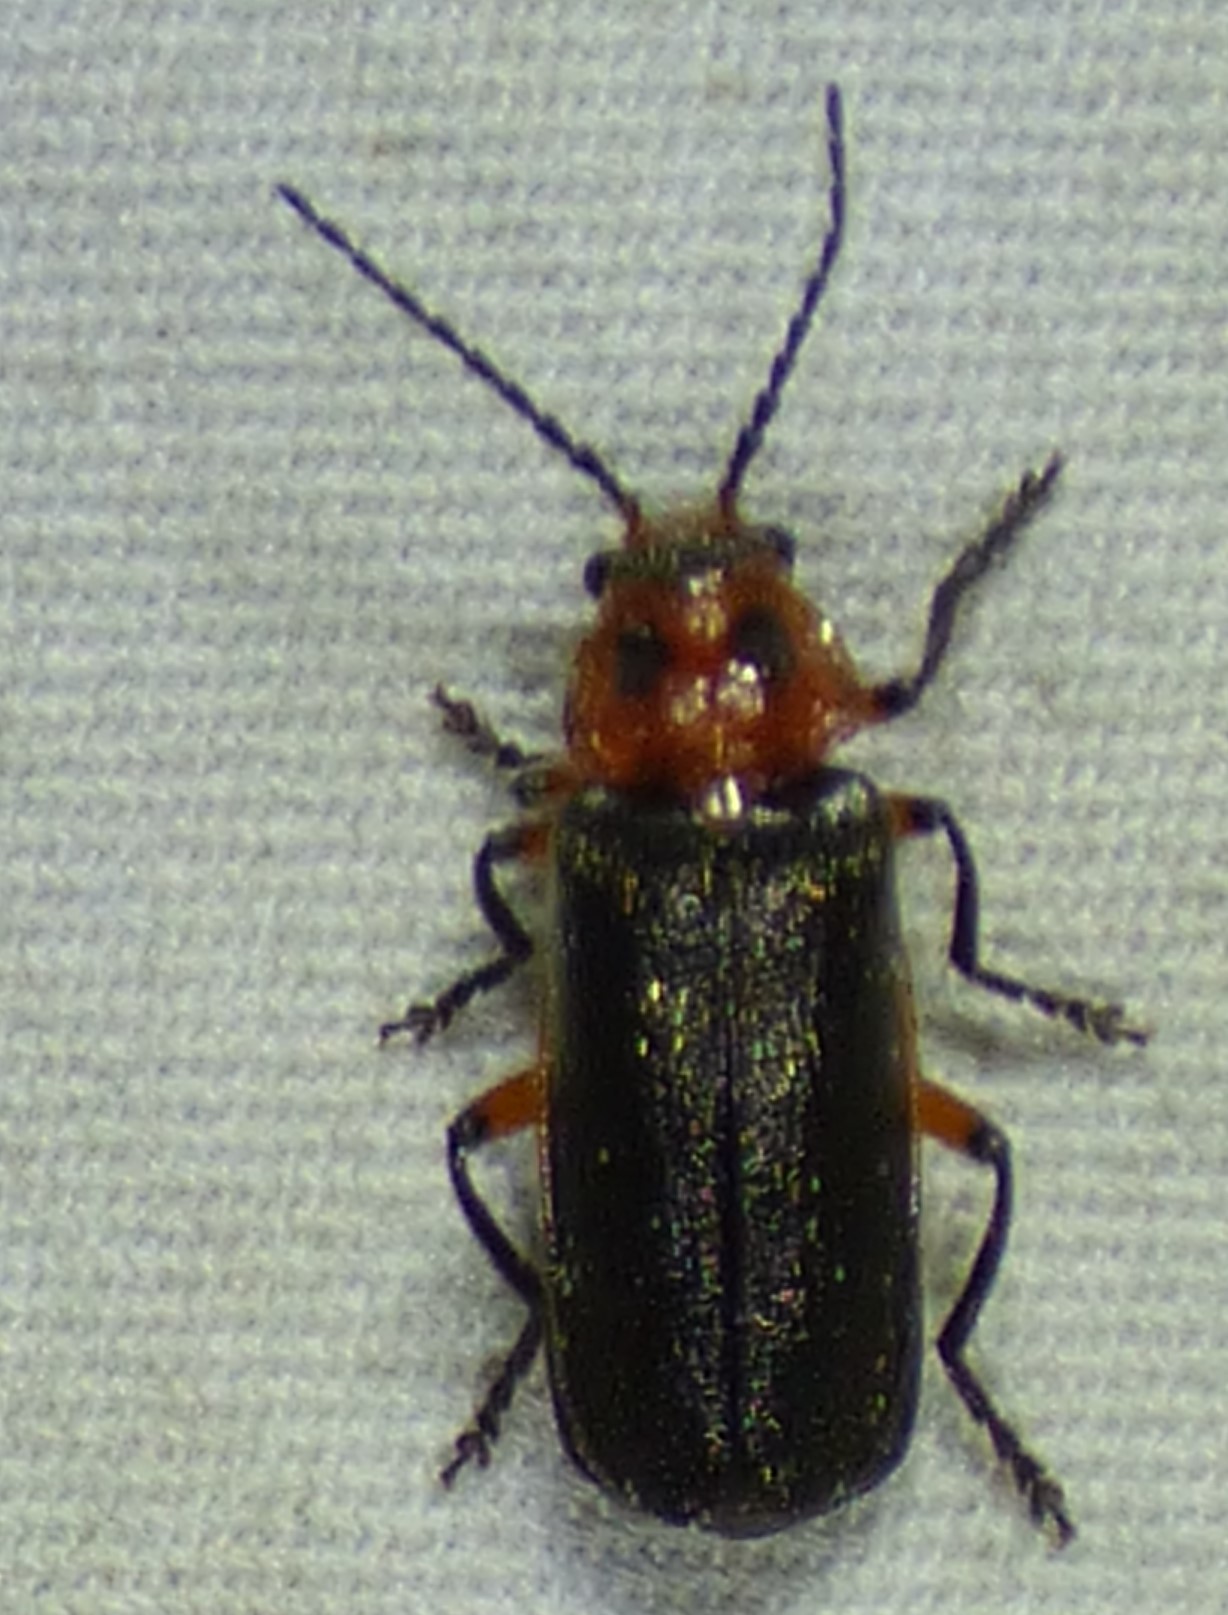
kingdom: Animalia
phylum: Arthropoda
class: Insecta
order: Coleoptera
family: Cantharidae
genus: Atalantycha
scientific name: Atalantycha bilineata
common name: Two-lined leatherwing
